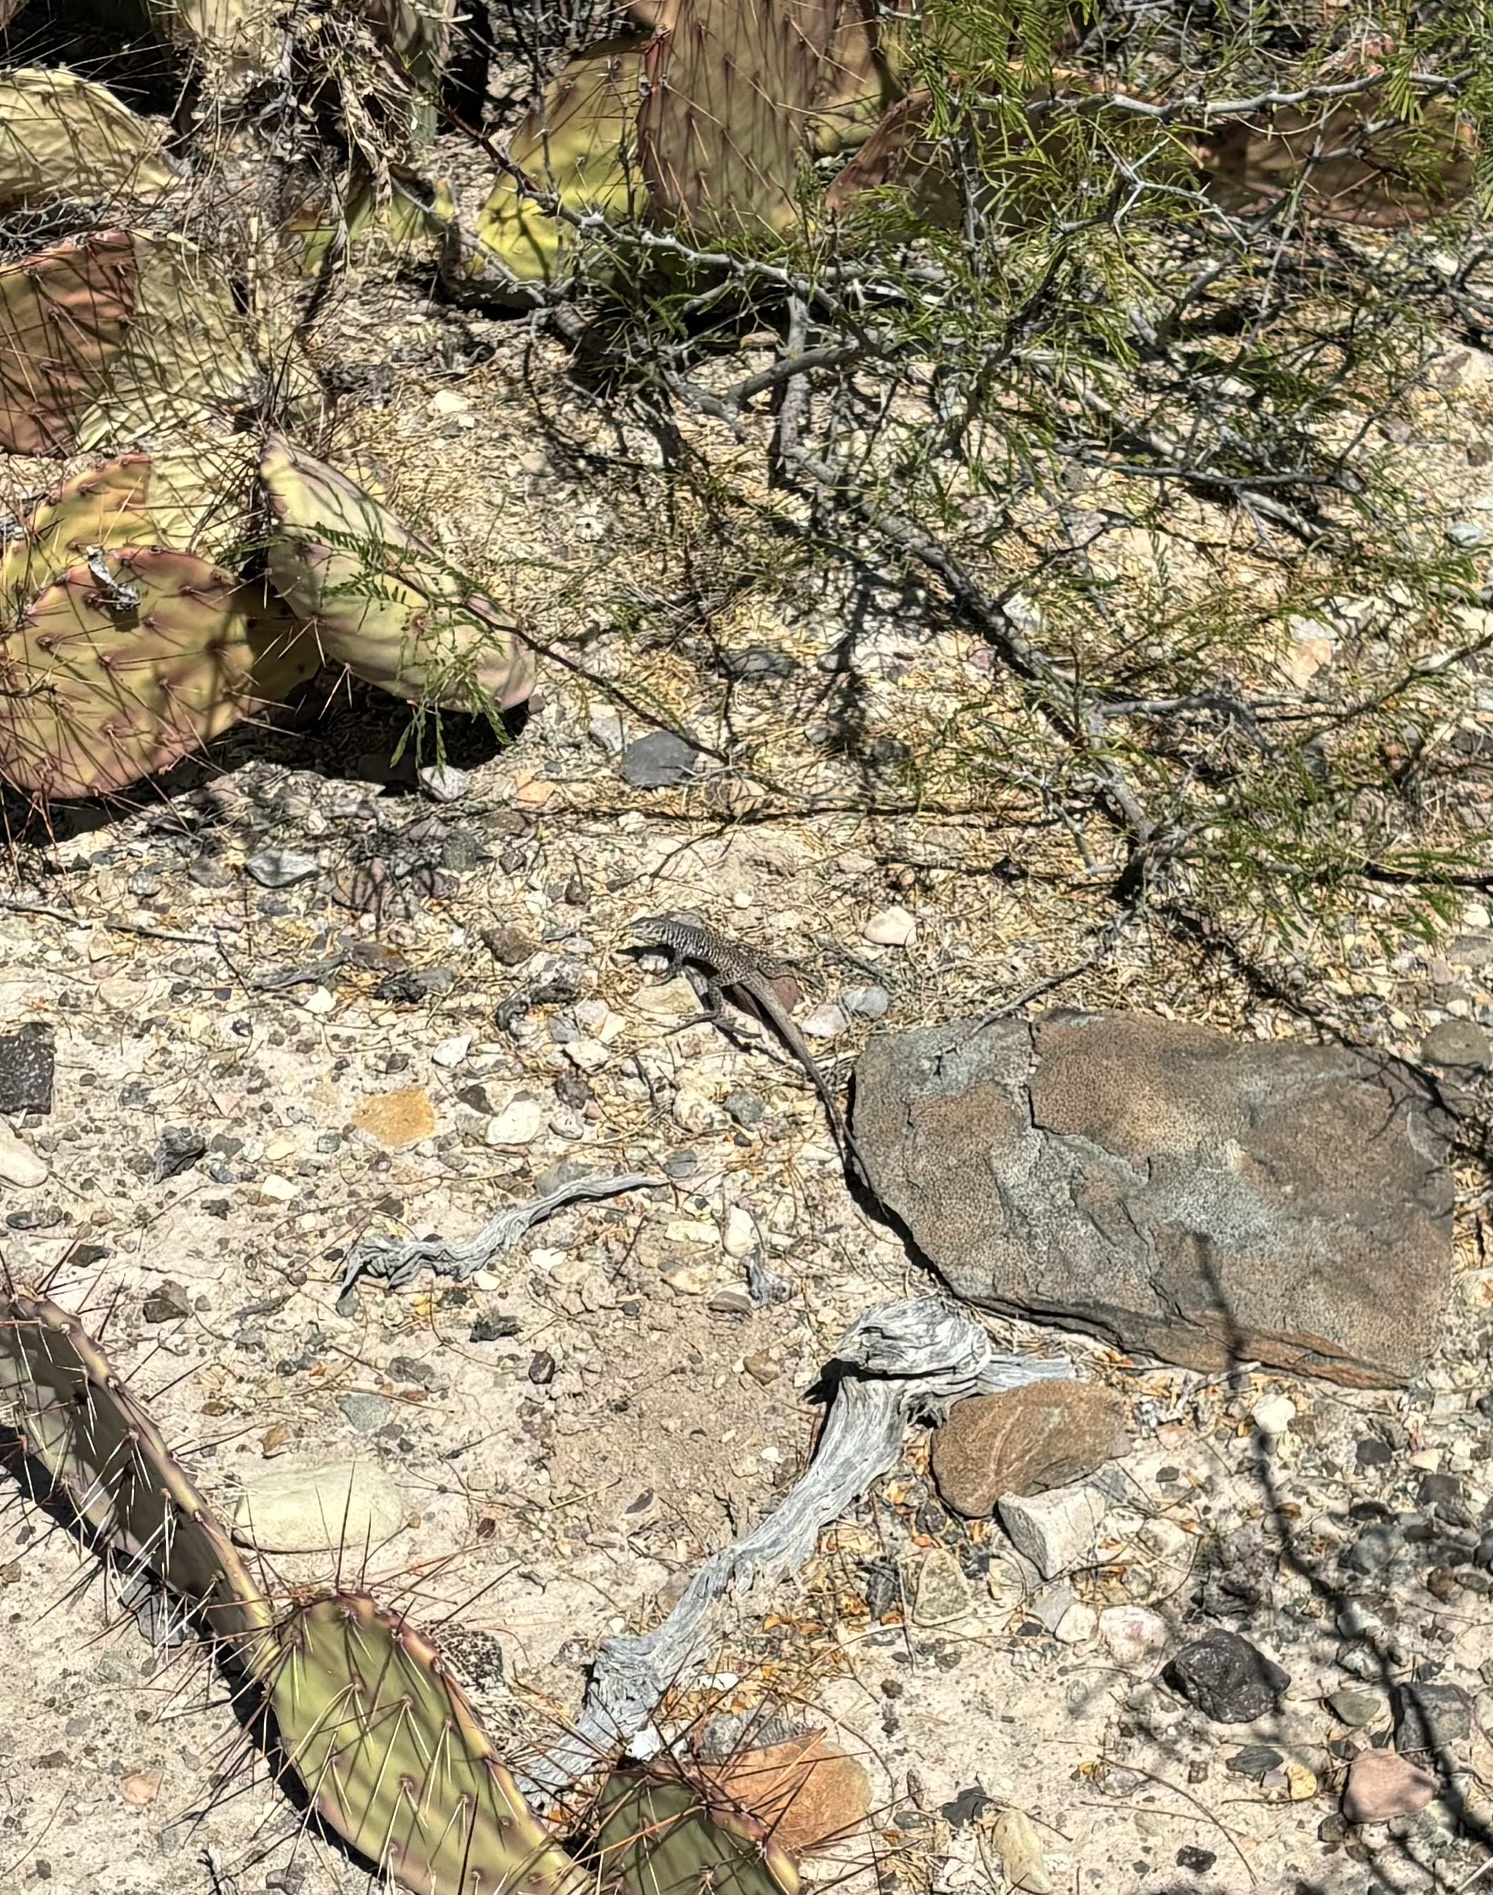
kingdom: Animalia
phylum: Chordata
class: Squamata
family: Teiidae
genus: Aspidoscelis
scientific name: Aspidoscelis marmoratus
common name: Eastern marbled whiptail [reticuloriens]
